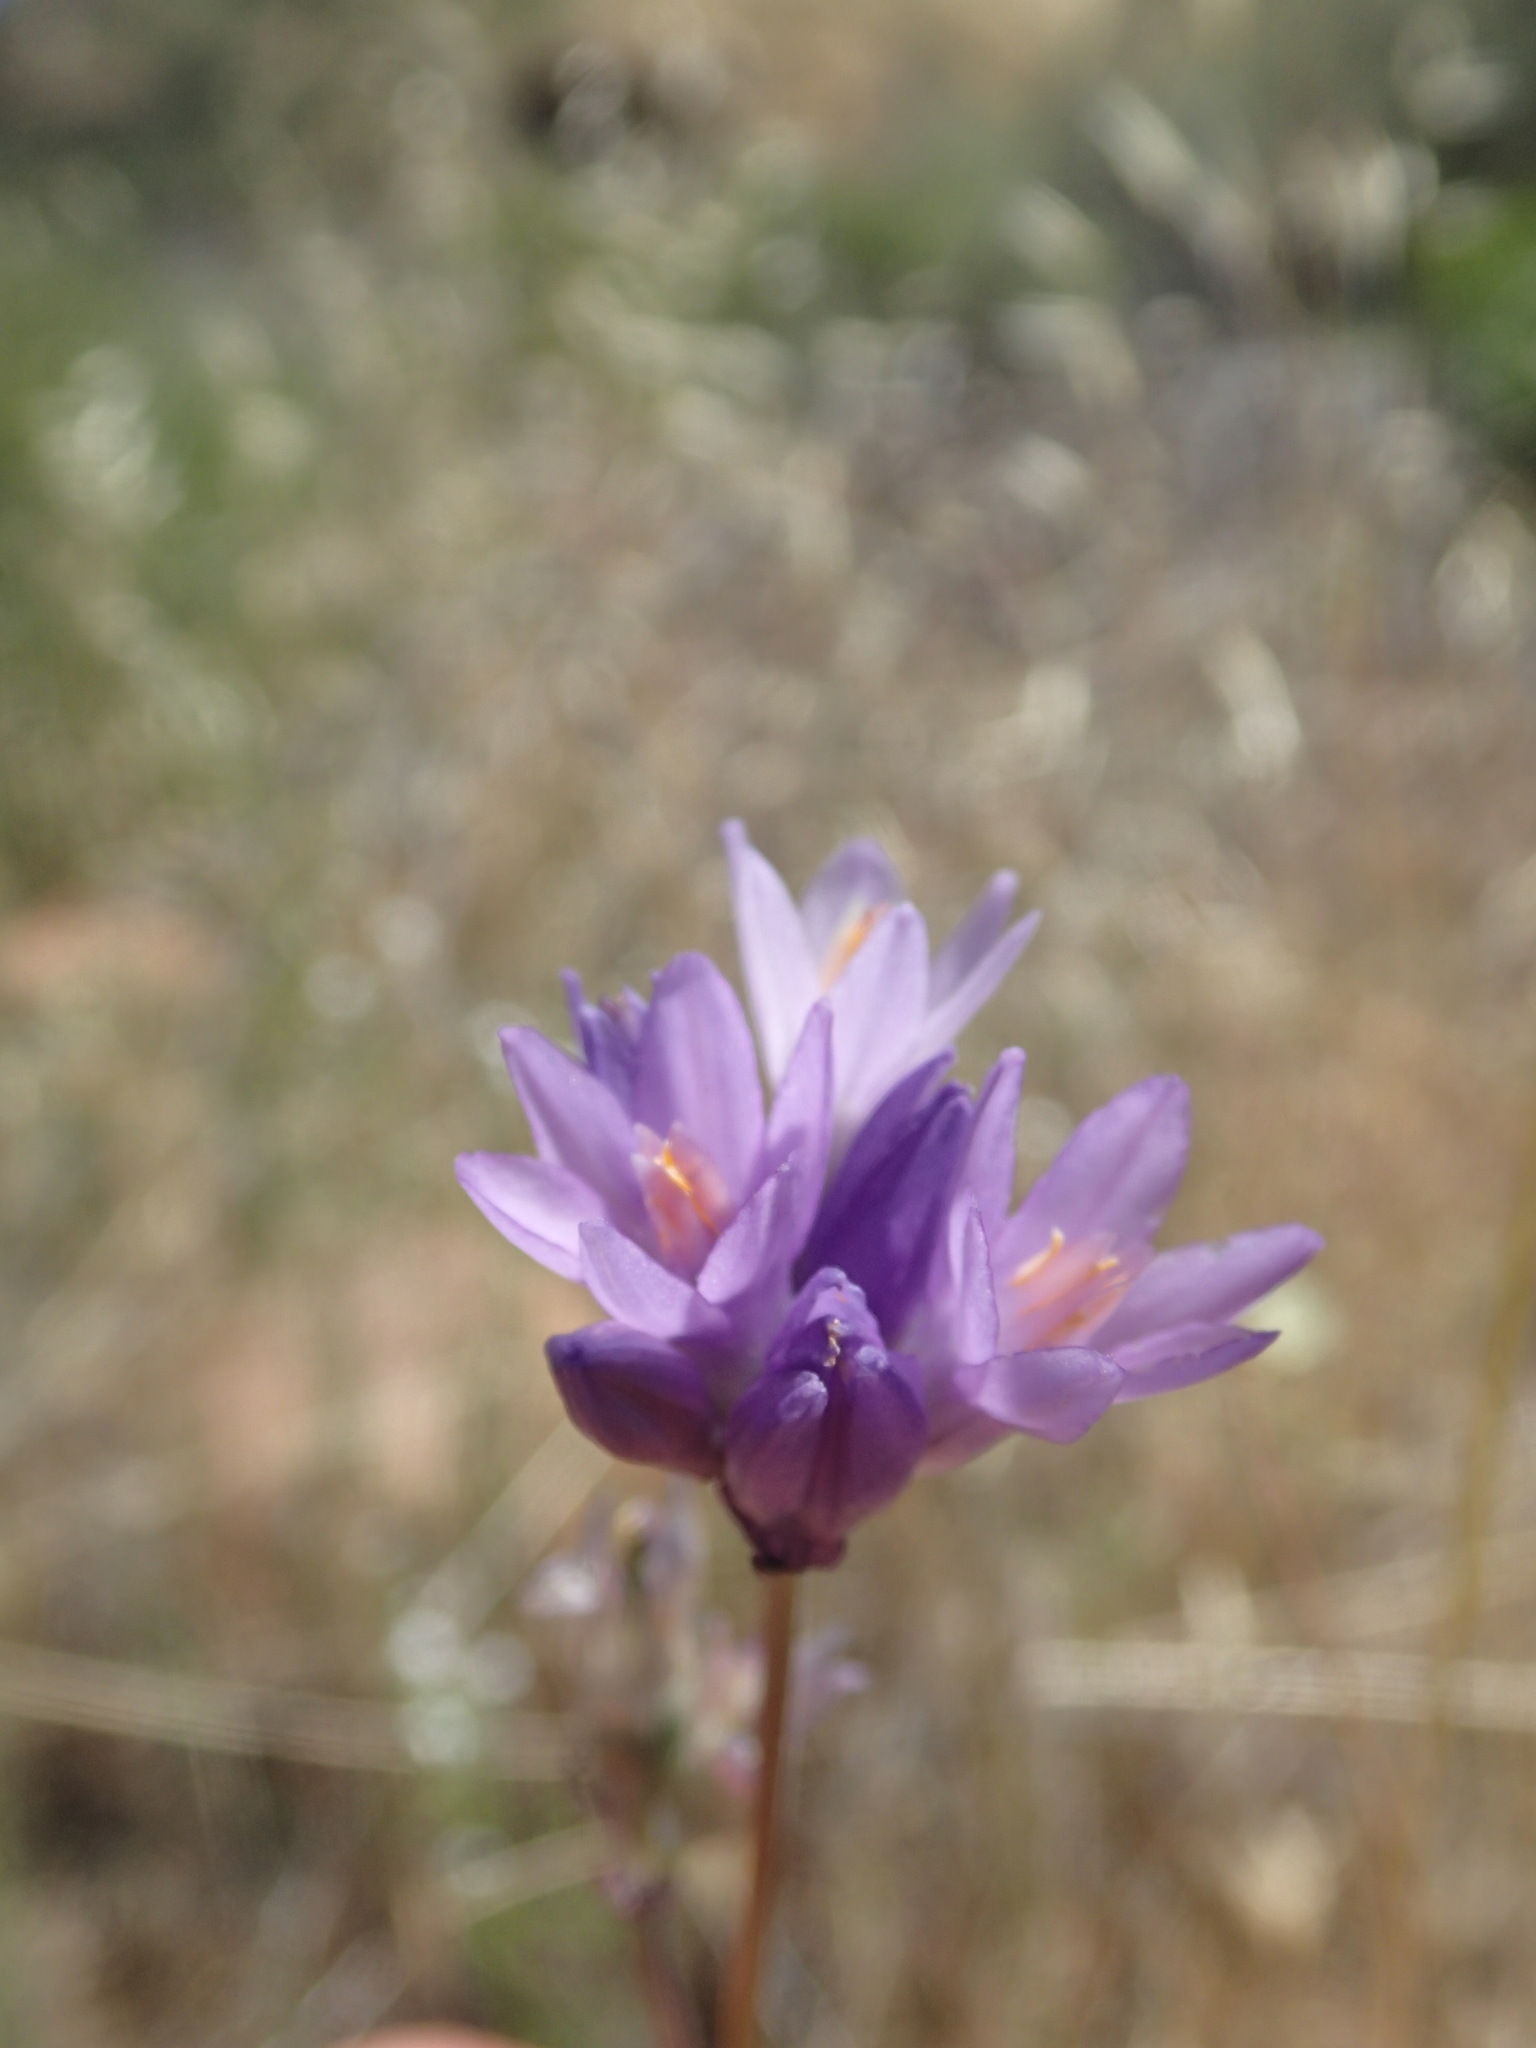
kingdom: Plantae
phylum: Tracheophyta
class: Liliopsida
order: Asparagales
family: Asparagaceae
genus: Dipterostemon
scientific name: Dipterostemon capitatus
